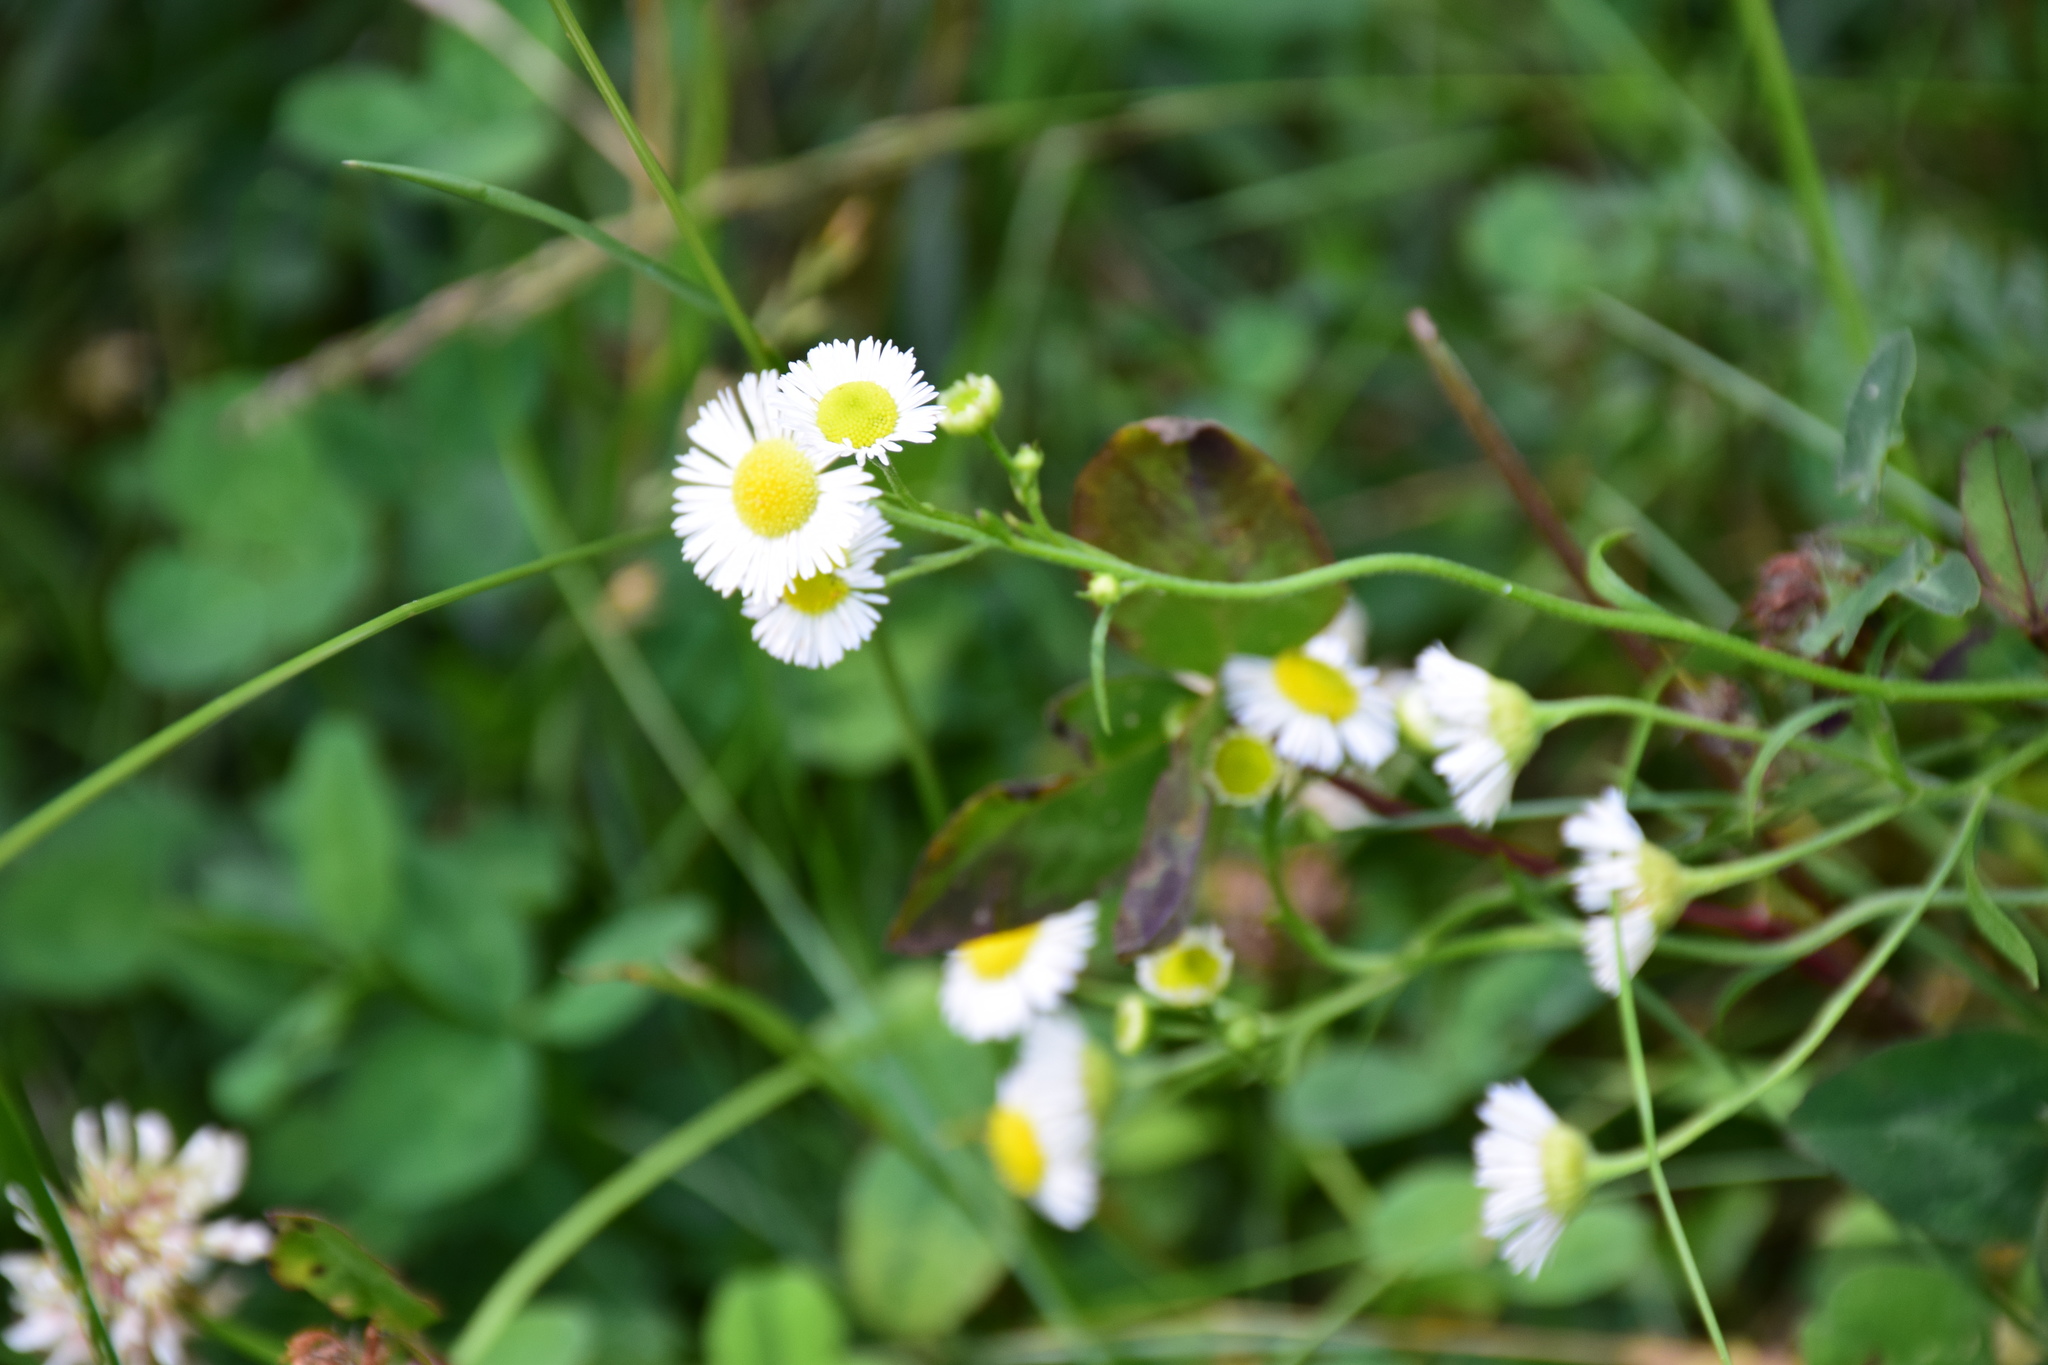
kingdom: Plantae
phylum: Tracheophyta
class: Magnoliopsida
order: Asterales
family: Asteraceae
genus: Erigeron
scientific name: Erigeron strigosus
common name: Common eastern fleabane
